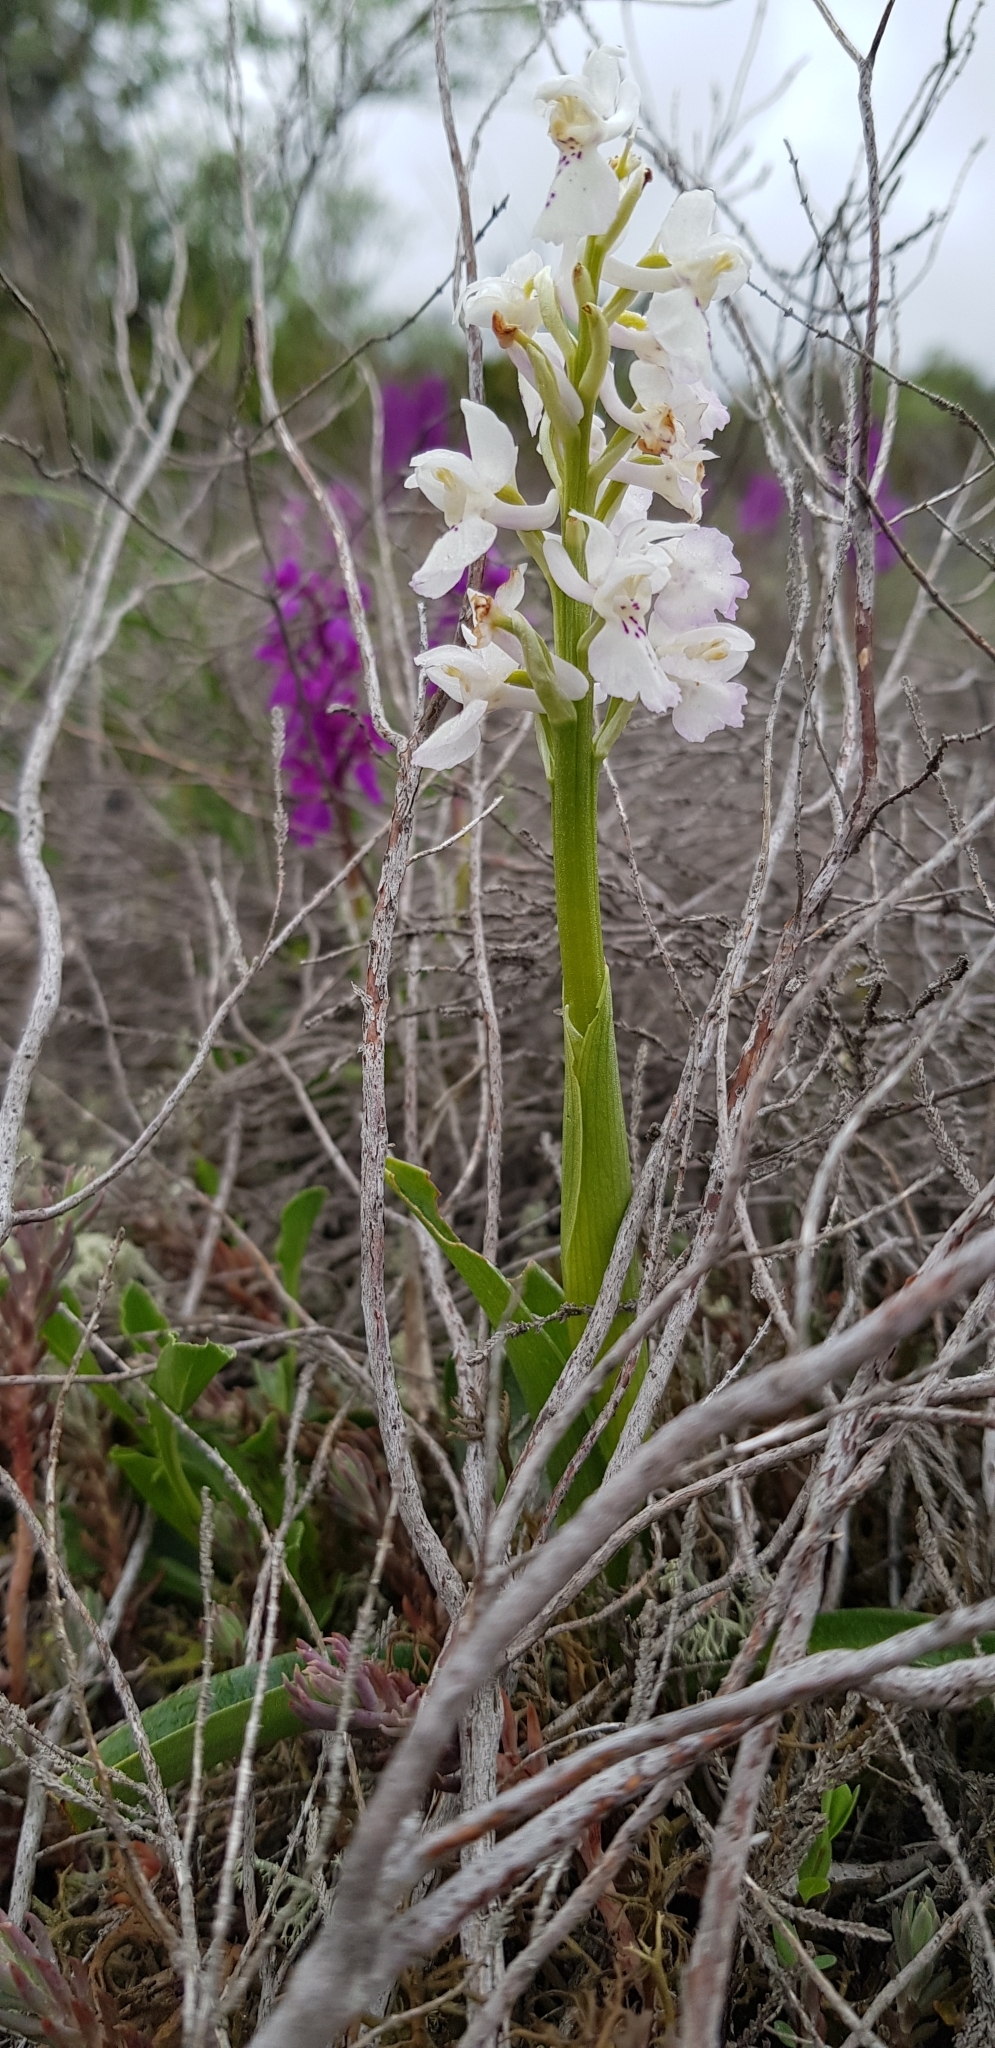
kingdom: Plantae
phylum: Tracheophyta
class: Liliopsida
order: Asparagales
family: Orchidaceae
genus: Orchis
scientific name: Orchis mascula
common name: Early-purple orchid
